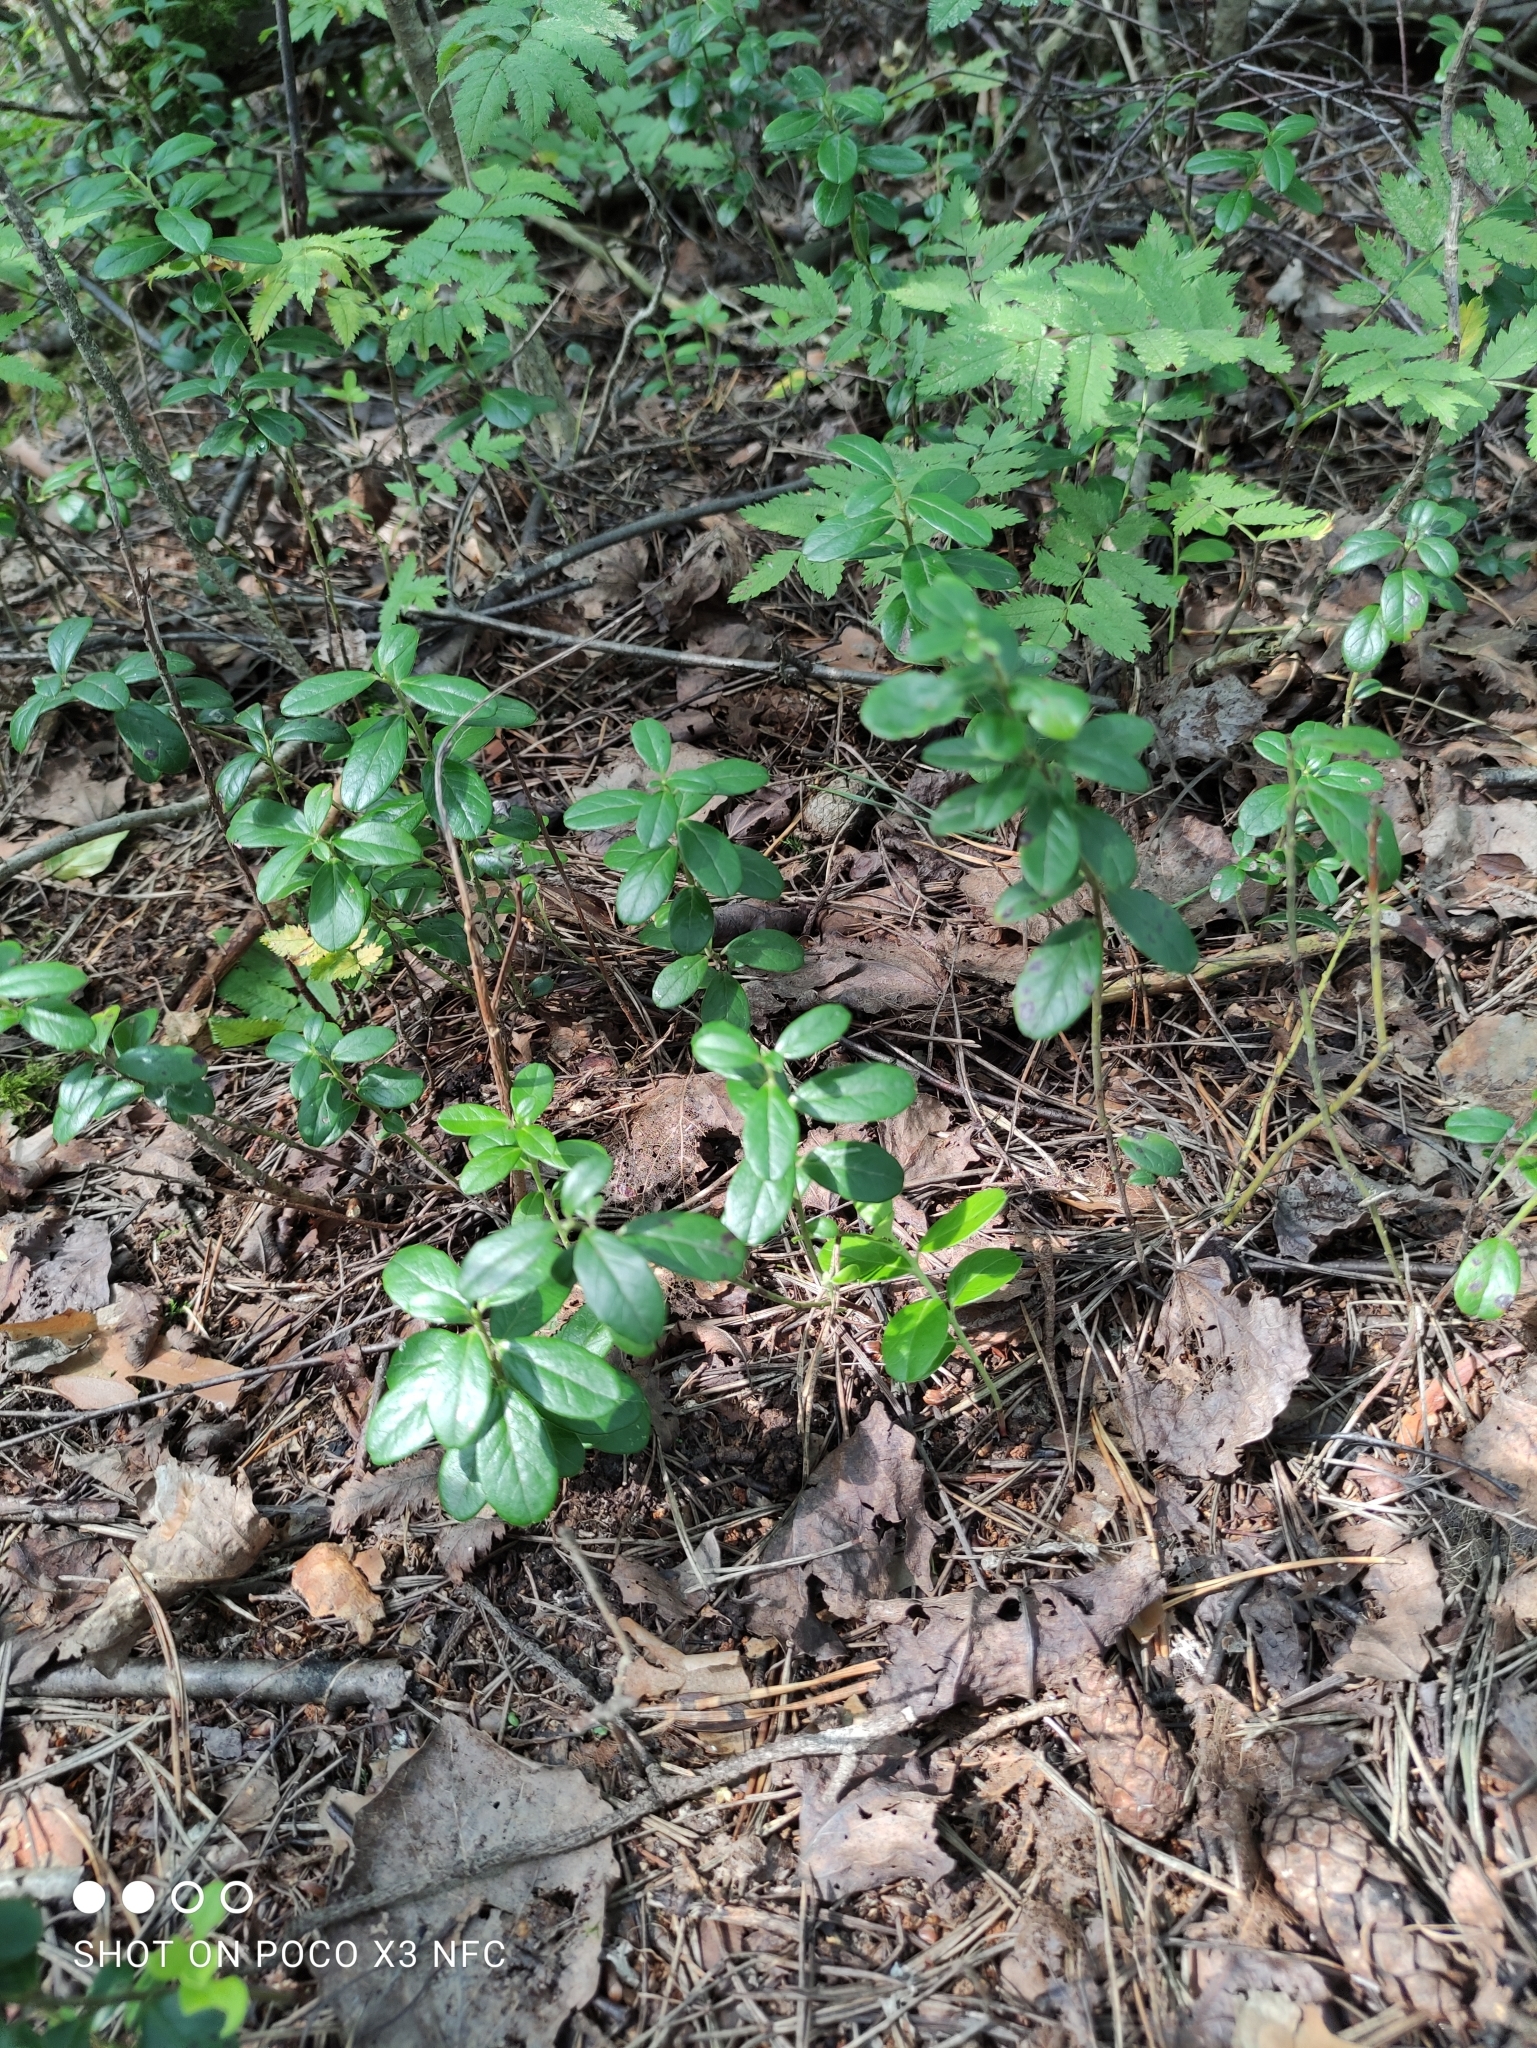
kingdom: Plantae
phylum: Tracheophyta
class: Magnoliopsida
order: Ericales
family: Ericaceae
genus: Vaccinium
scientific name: Vaccinium vitis-idaea
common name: Cowberry
